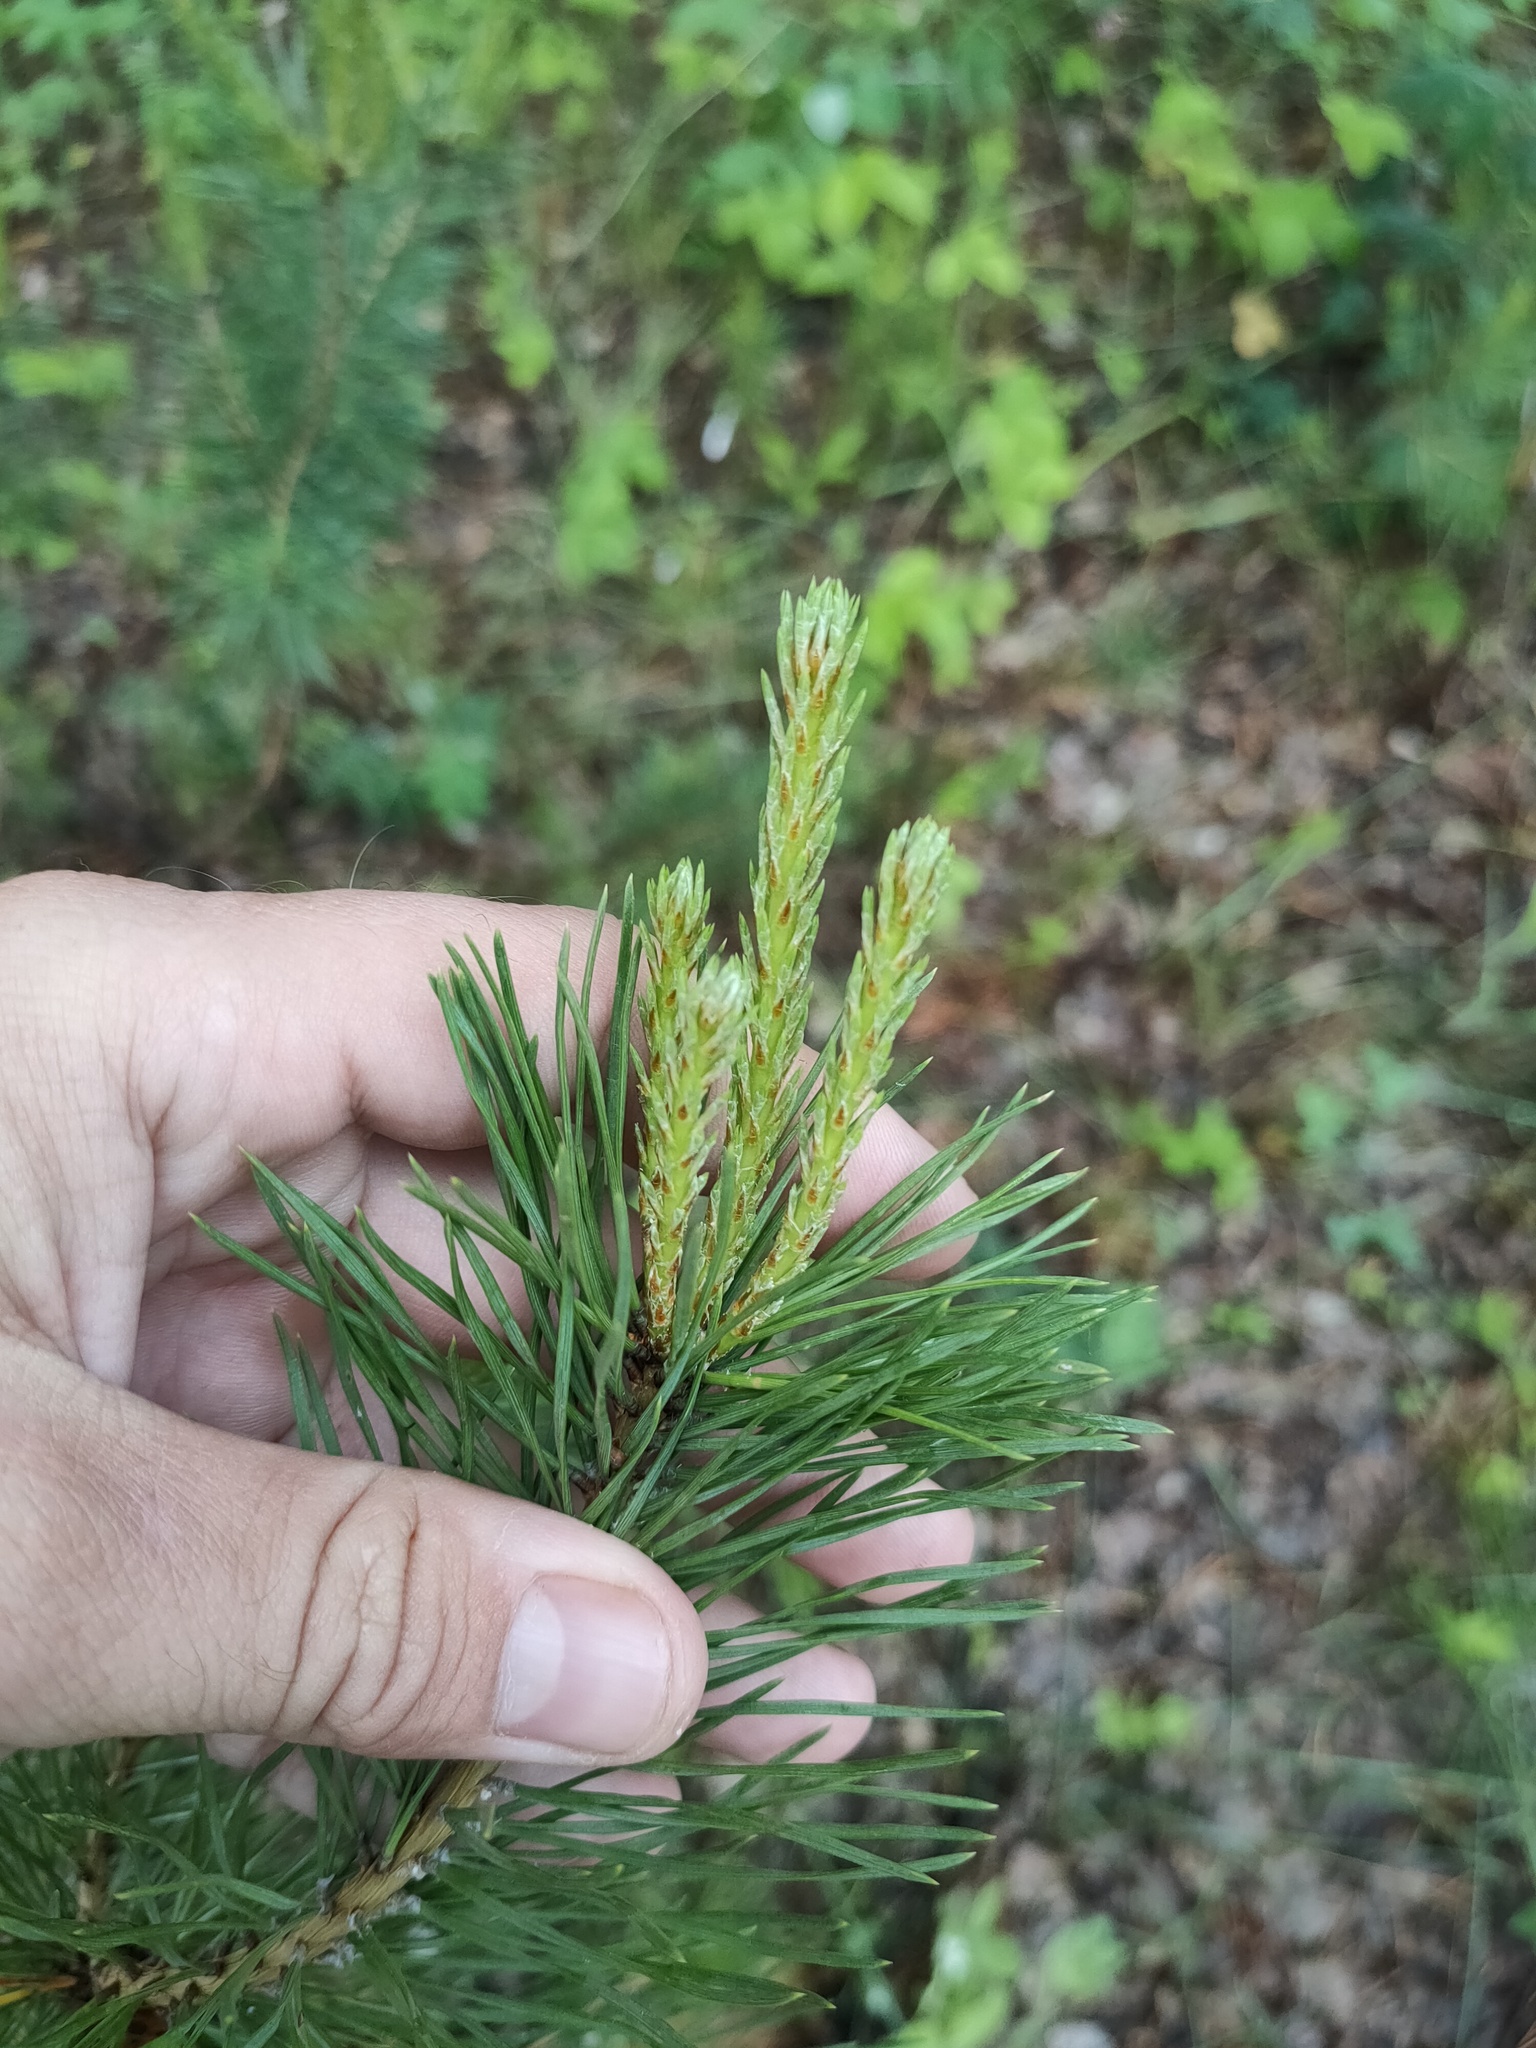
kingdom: Plantae
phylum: Tracheophyta
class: Pinopsida
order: Pinales
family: Pinaceae
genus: Pinus
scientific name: Pinus sylvestris
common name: Scots pine
